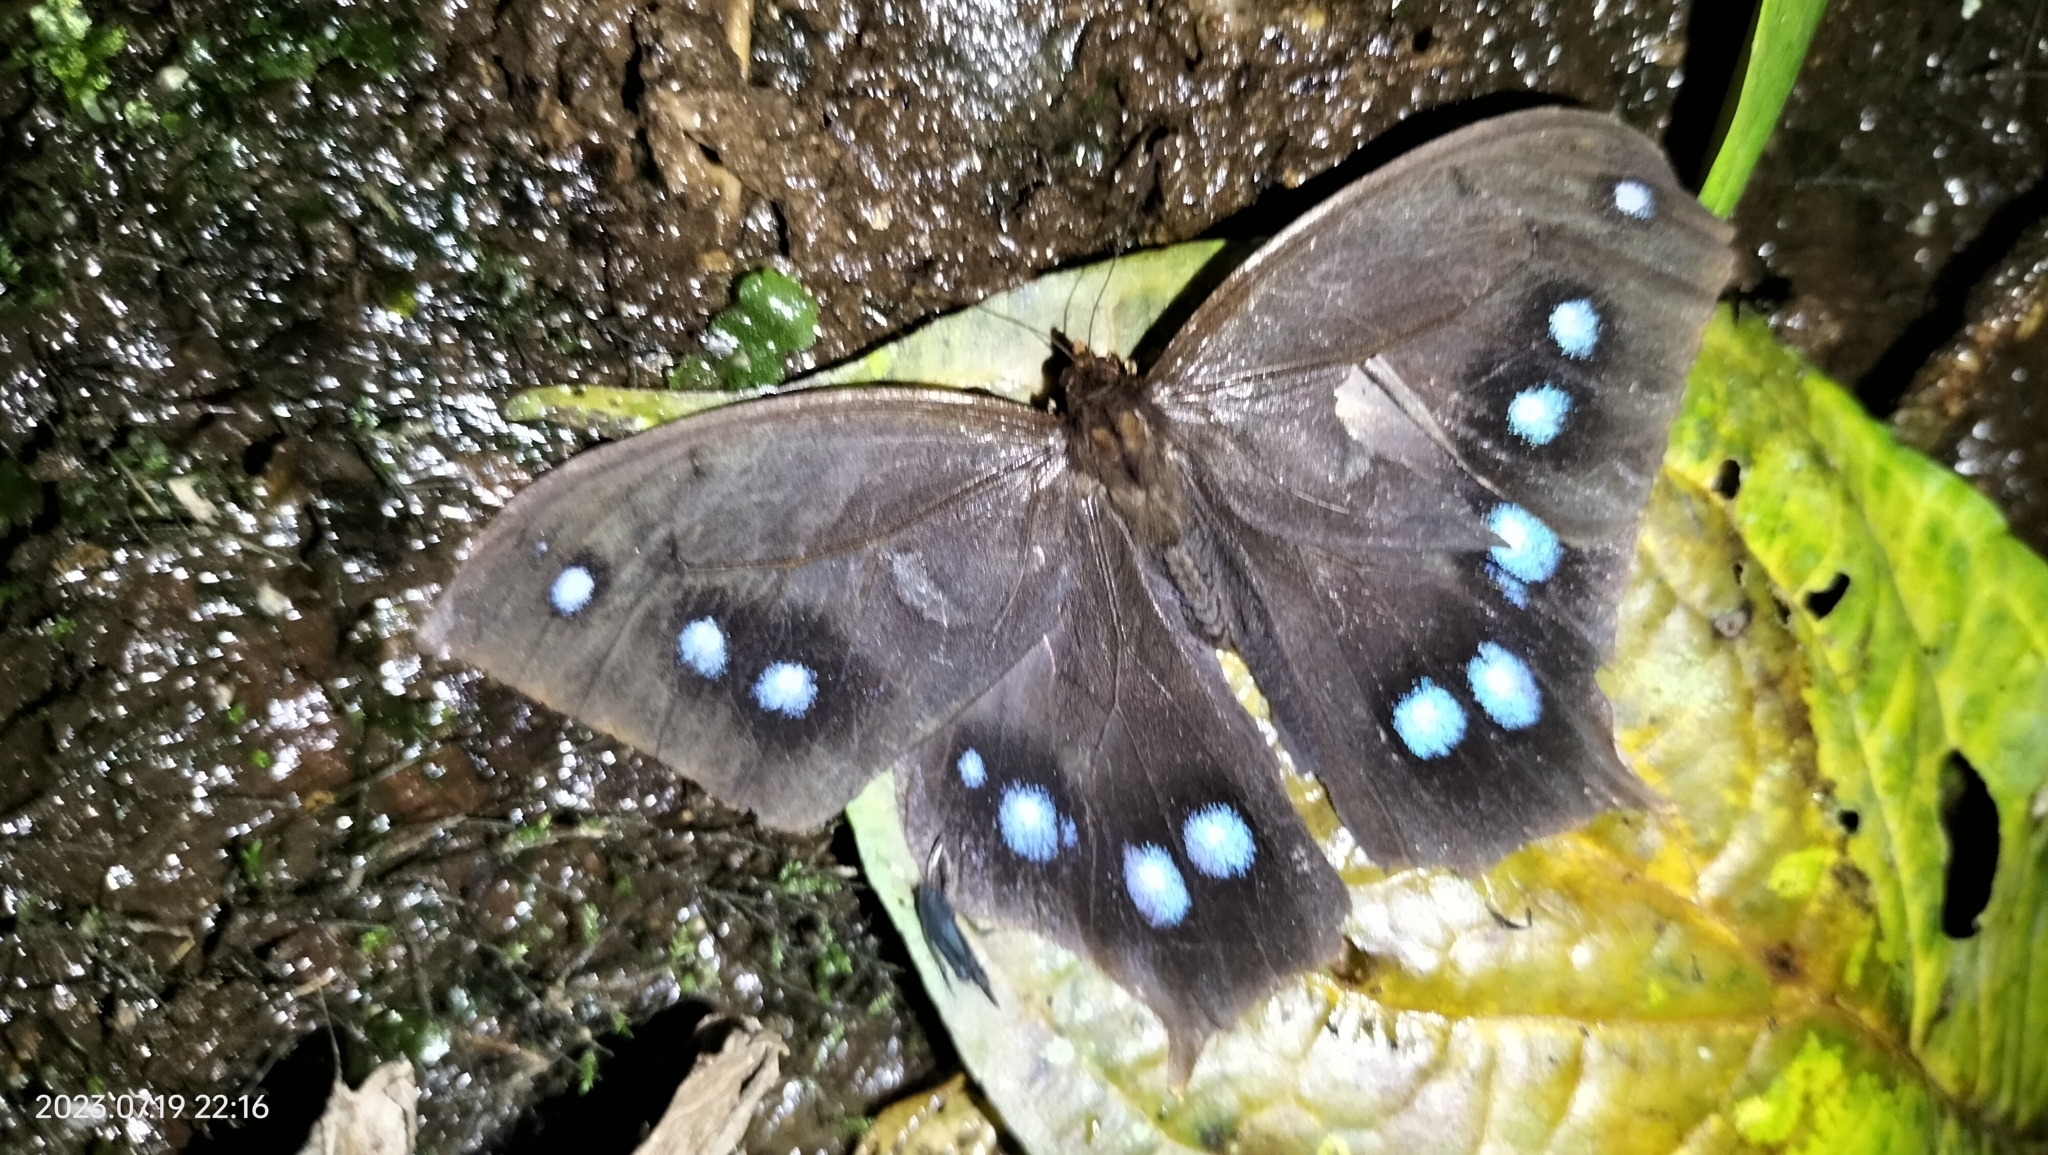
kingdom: Animalia
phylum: Arthropoda
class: Insecta
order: Lepidoptera
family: Nymphalidae
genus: Antirrhea
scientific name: Antirrhea
